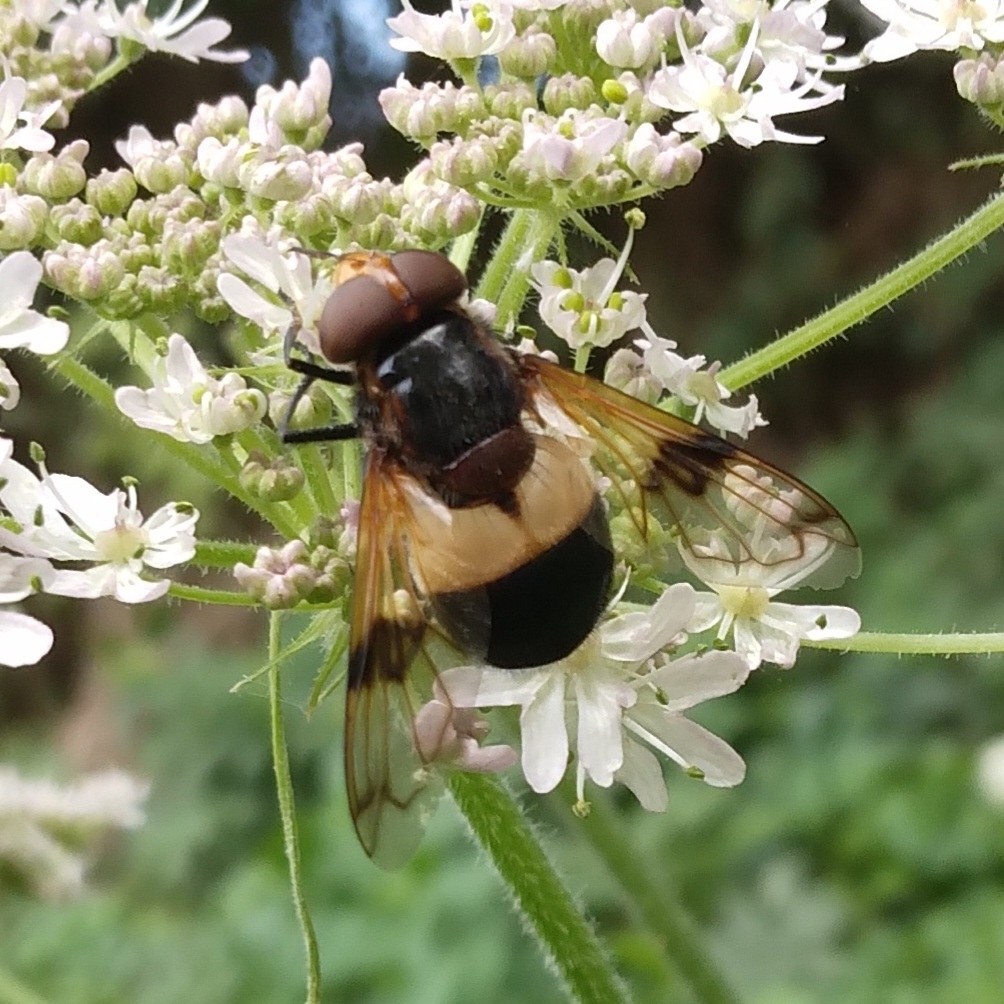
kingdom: Animalia
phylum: Arthropoda
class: Insecta
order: Diptera
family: Syrphidae
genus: Volucella
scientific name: Volucella pellucens
